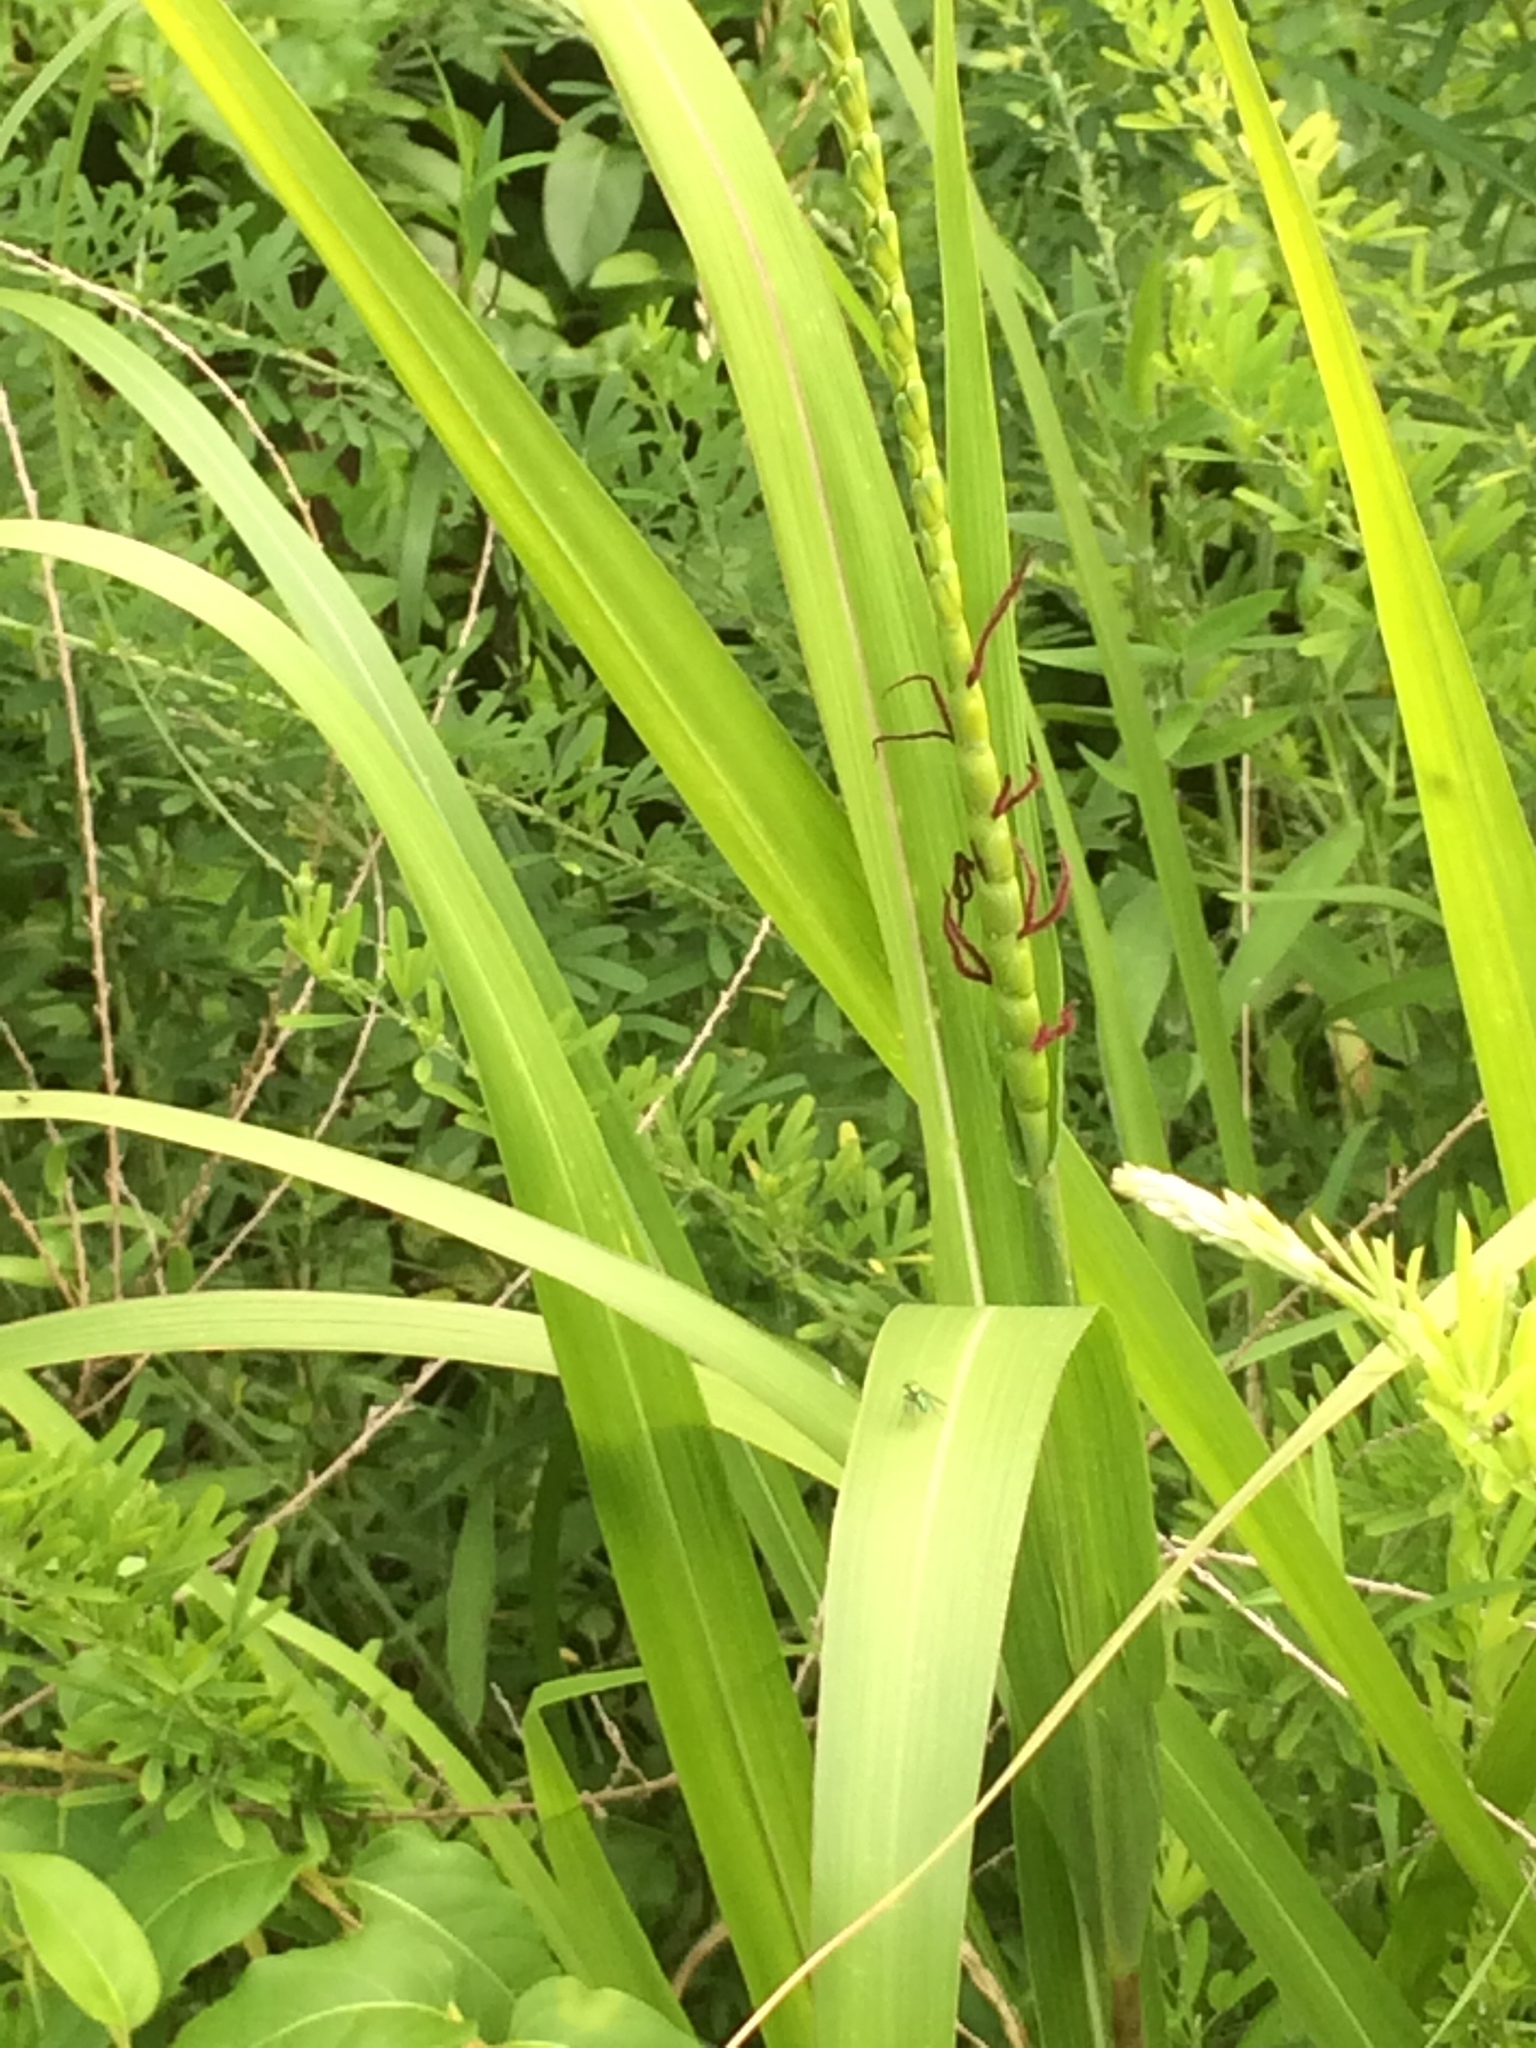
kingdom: Plantae
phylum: Tracheophyta
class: Liliopsida
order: Poales
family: Poaceae
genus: Tripsacum
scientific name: Tripsacum dactyloides
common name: Buffalo-grass
